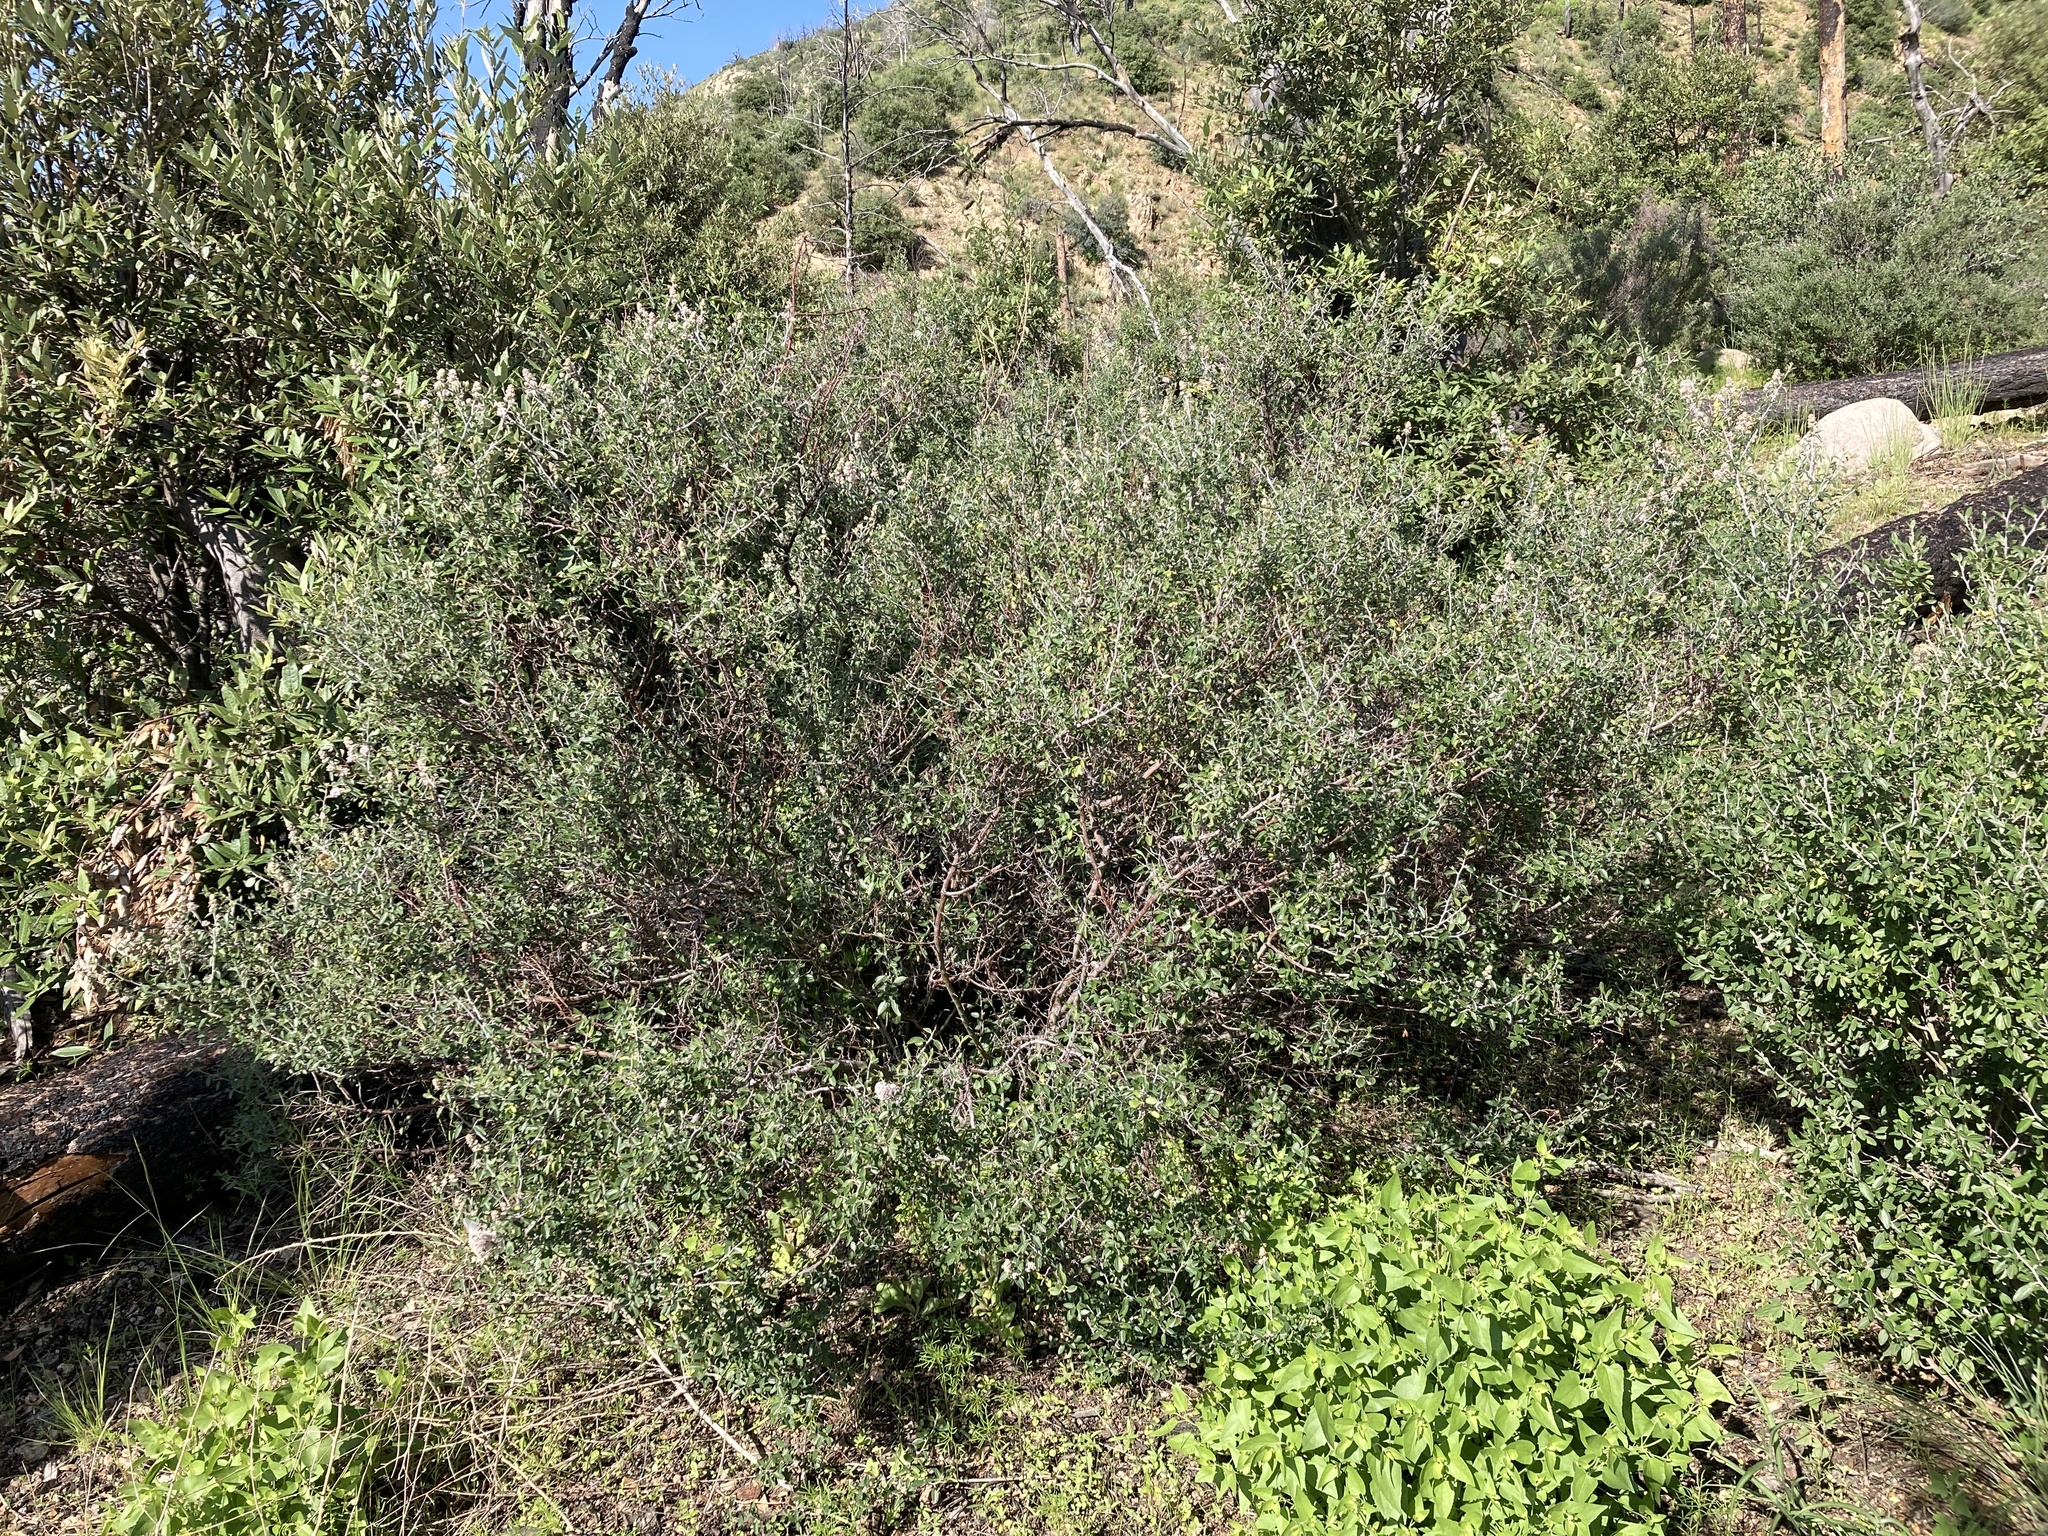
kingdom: Plantae
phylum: Tracheophyta
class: Magnoliopsida
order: Rosales
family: Rhamnaceae
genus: Ceanothus
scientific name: Ceanothus fendleri
